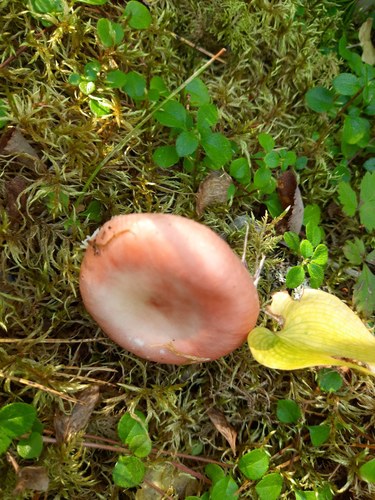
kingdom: Fungi
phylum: Basidiomycota
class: Agaricomycetes
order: Russulales
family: Russulaceae
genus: Russula
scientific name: Russula
